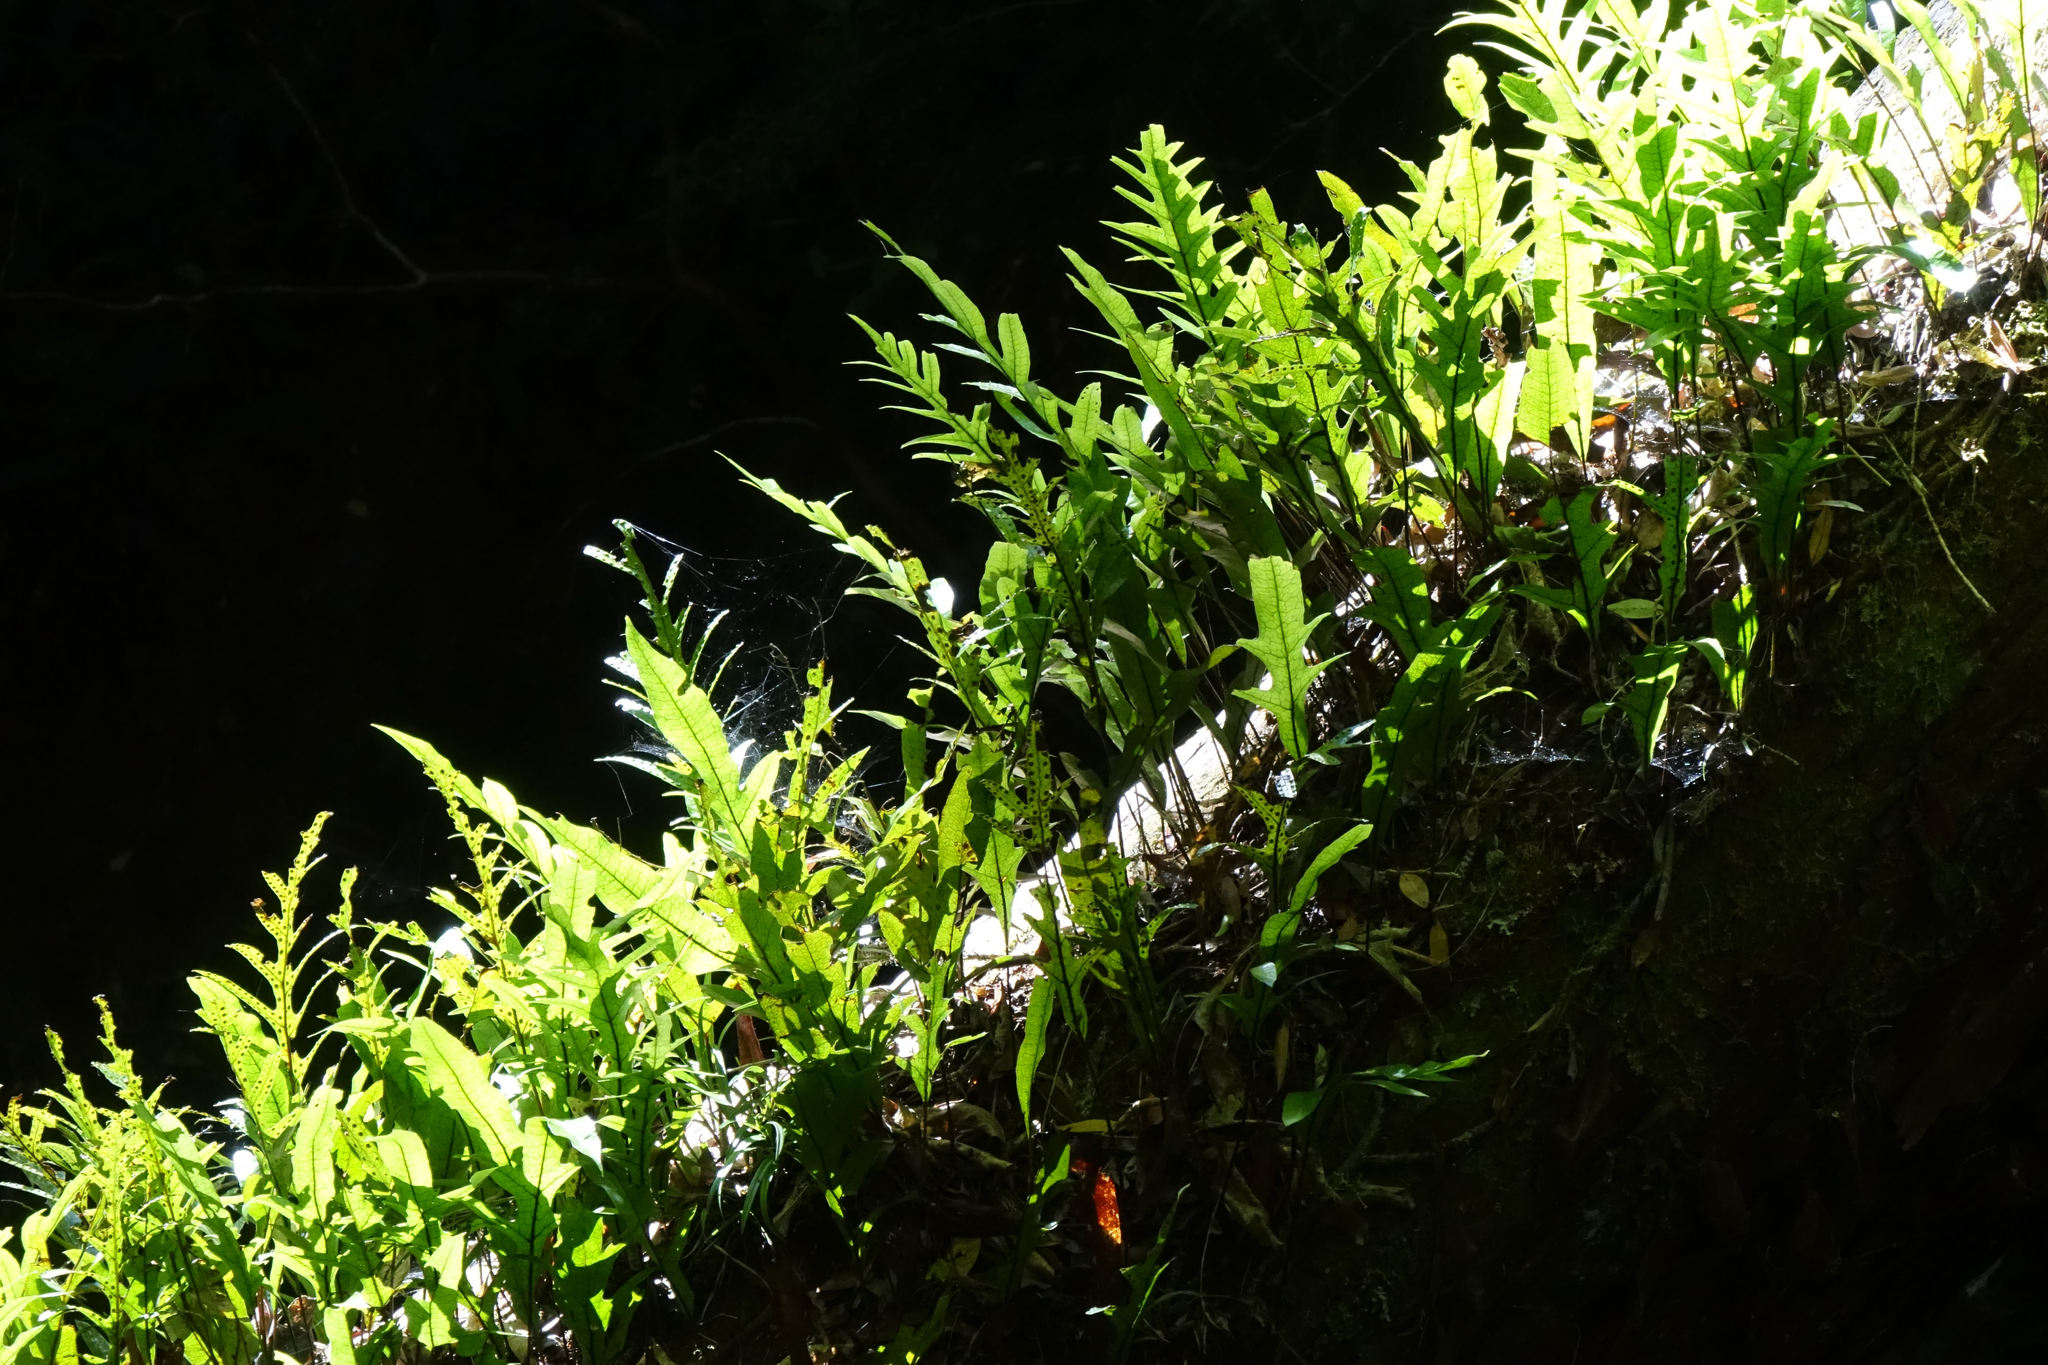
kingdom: Plantae
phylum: Tracheophyta
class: Polypodiopsida
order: Polypodiales
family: Polypodiaceae
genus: Lecanopteris
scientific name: Lecanopteris pustulata
